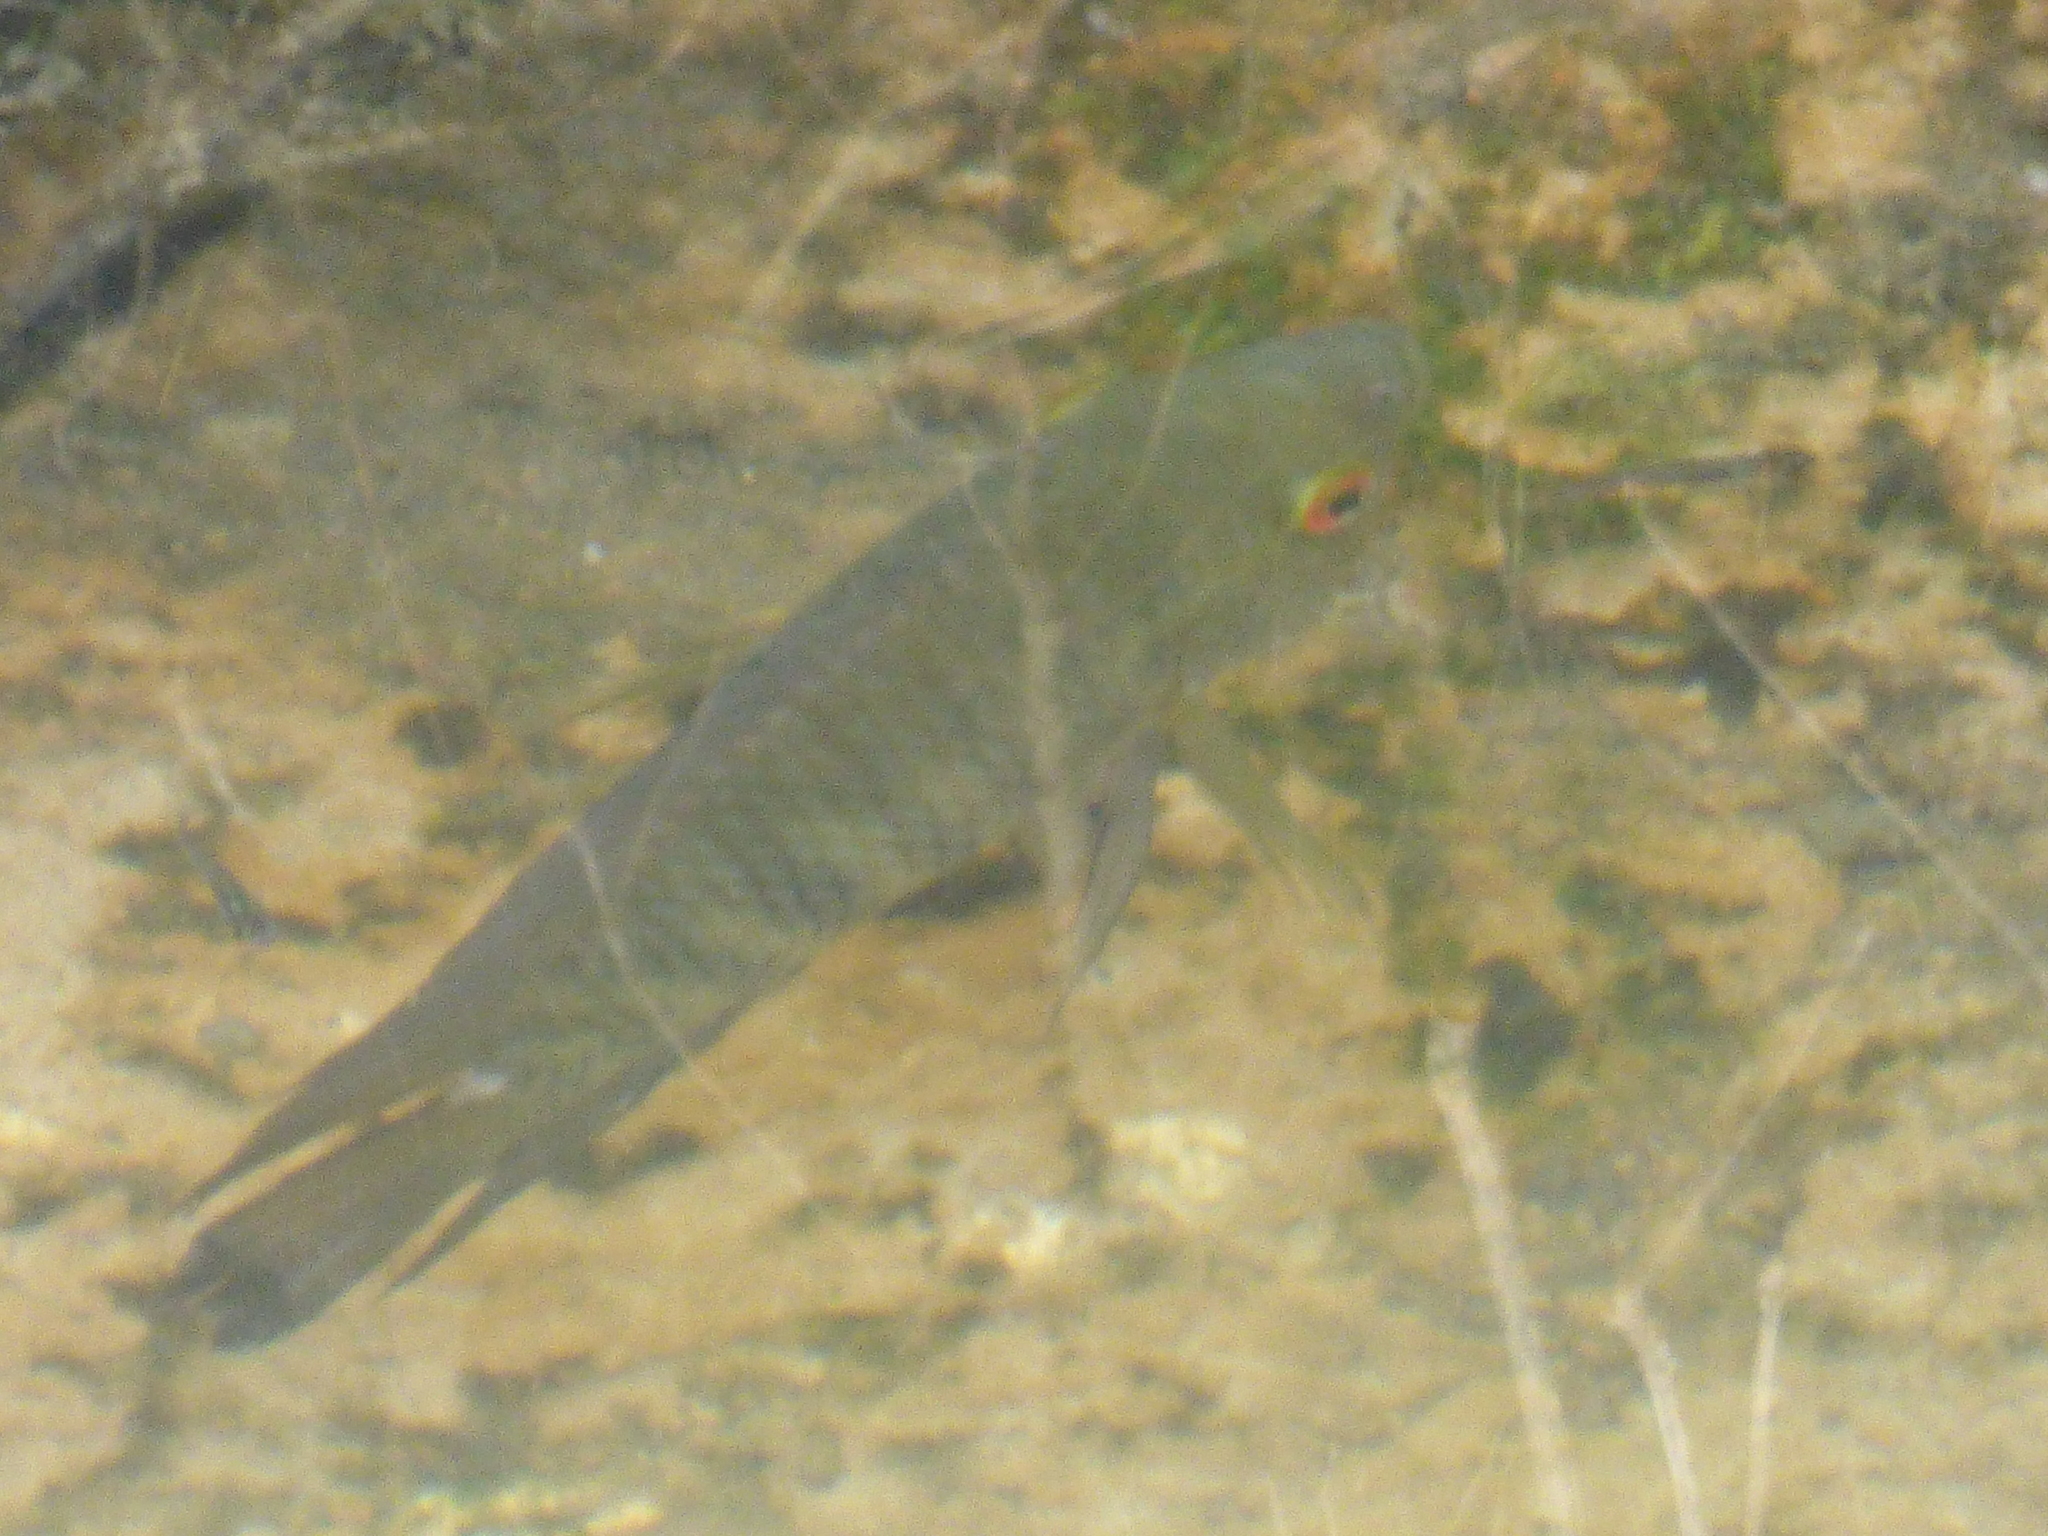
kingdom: Animalia
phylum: Chordata
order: Perciformes
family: Cichlidae
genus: Australoheros
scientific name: Australoheros facetus
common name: Chameleon cichlid
